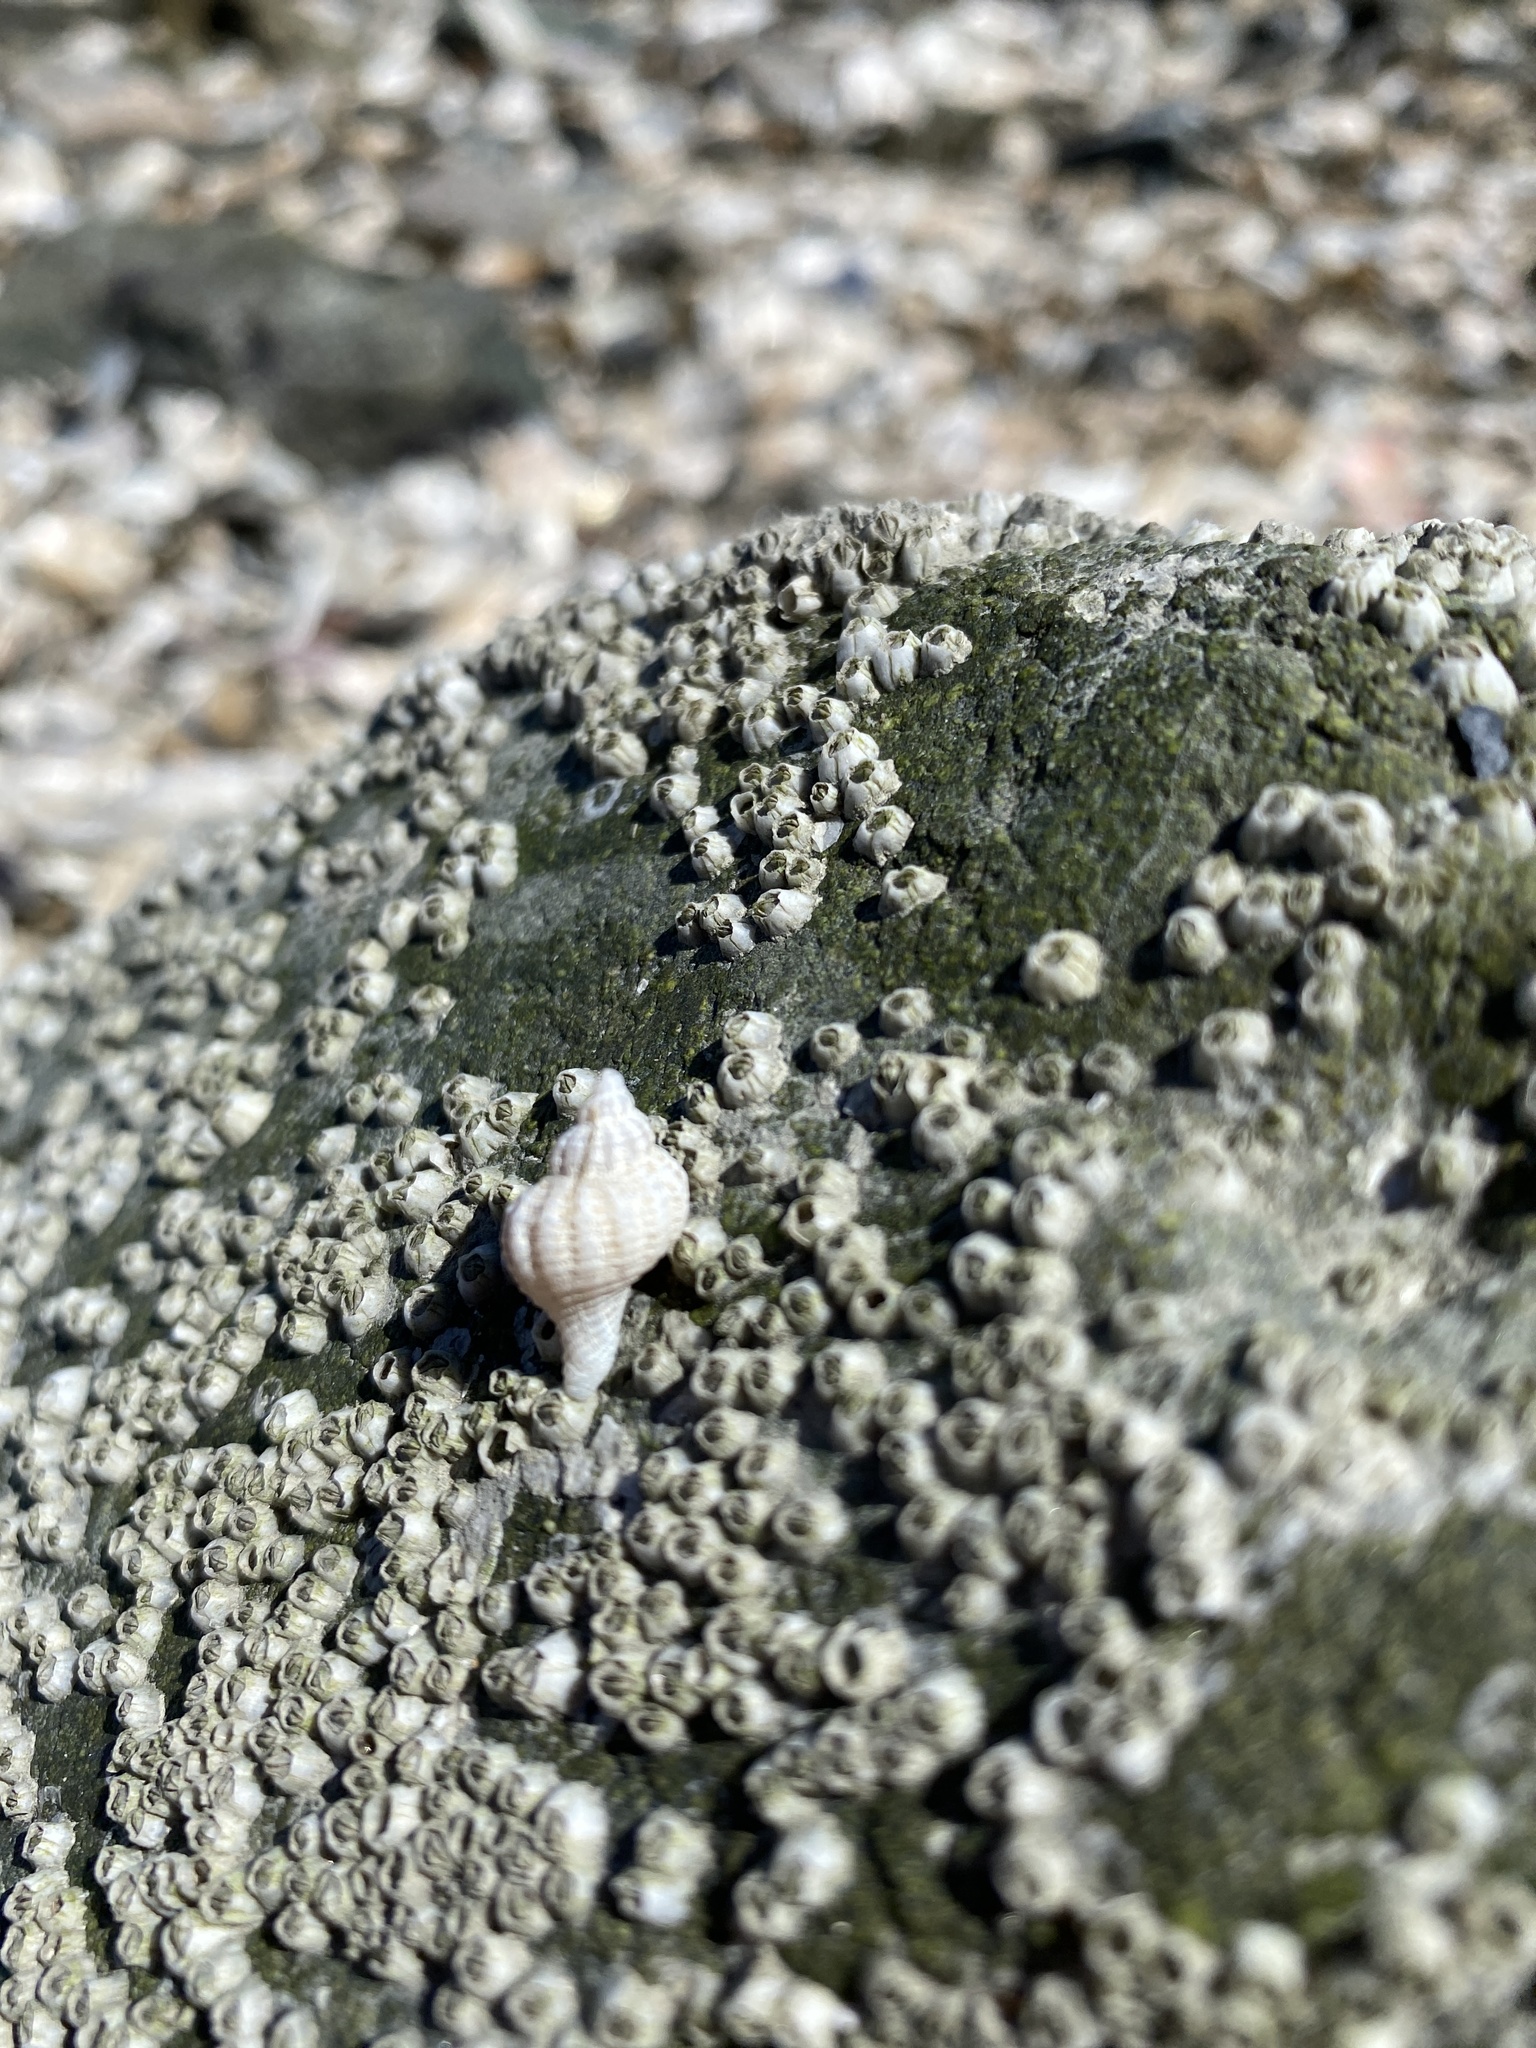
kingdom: Animalia
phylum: Mollusca
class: Gastropoda
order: Neogastropoda
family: Muricidae
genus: Urosalpinx
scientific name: Urosalpinx cinerea
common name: American sting winkle
